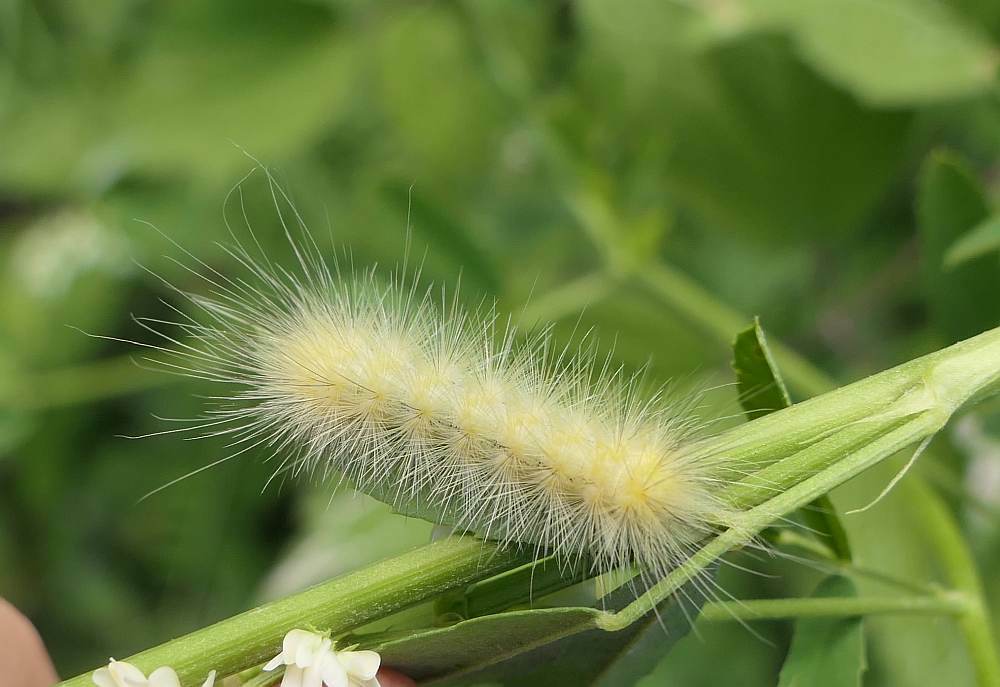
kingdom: Animalia
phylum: Arthropoda
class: Insecta
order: Lepidoptera
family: Erebidae
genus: Spilosoma
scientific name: Spilosoma virginica
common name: Virginia tiger moth
